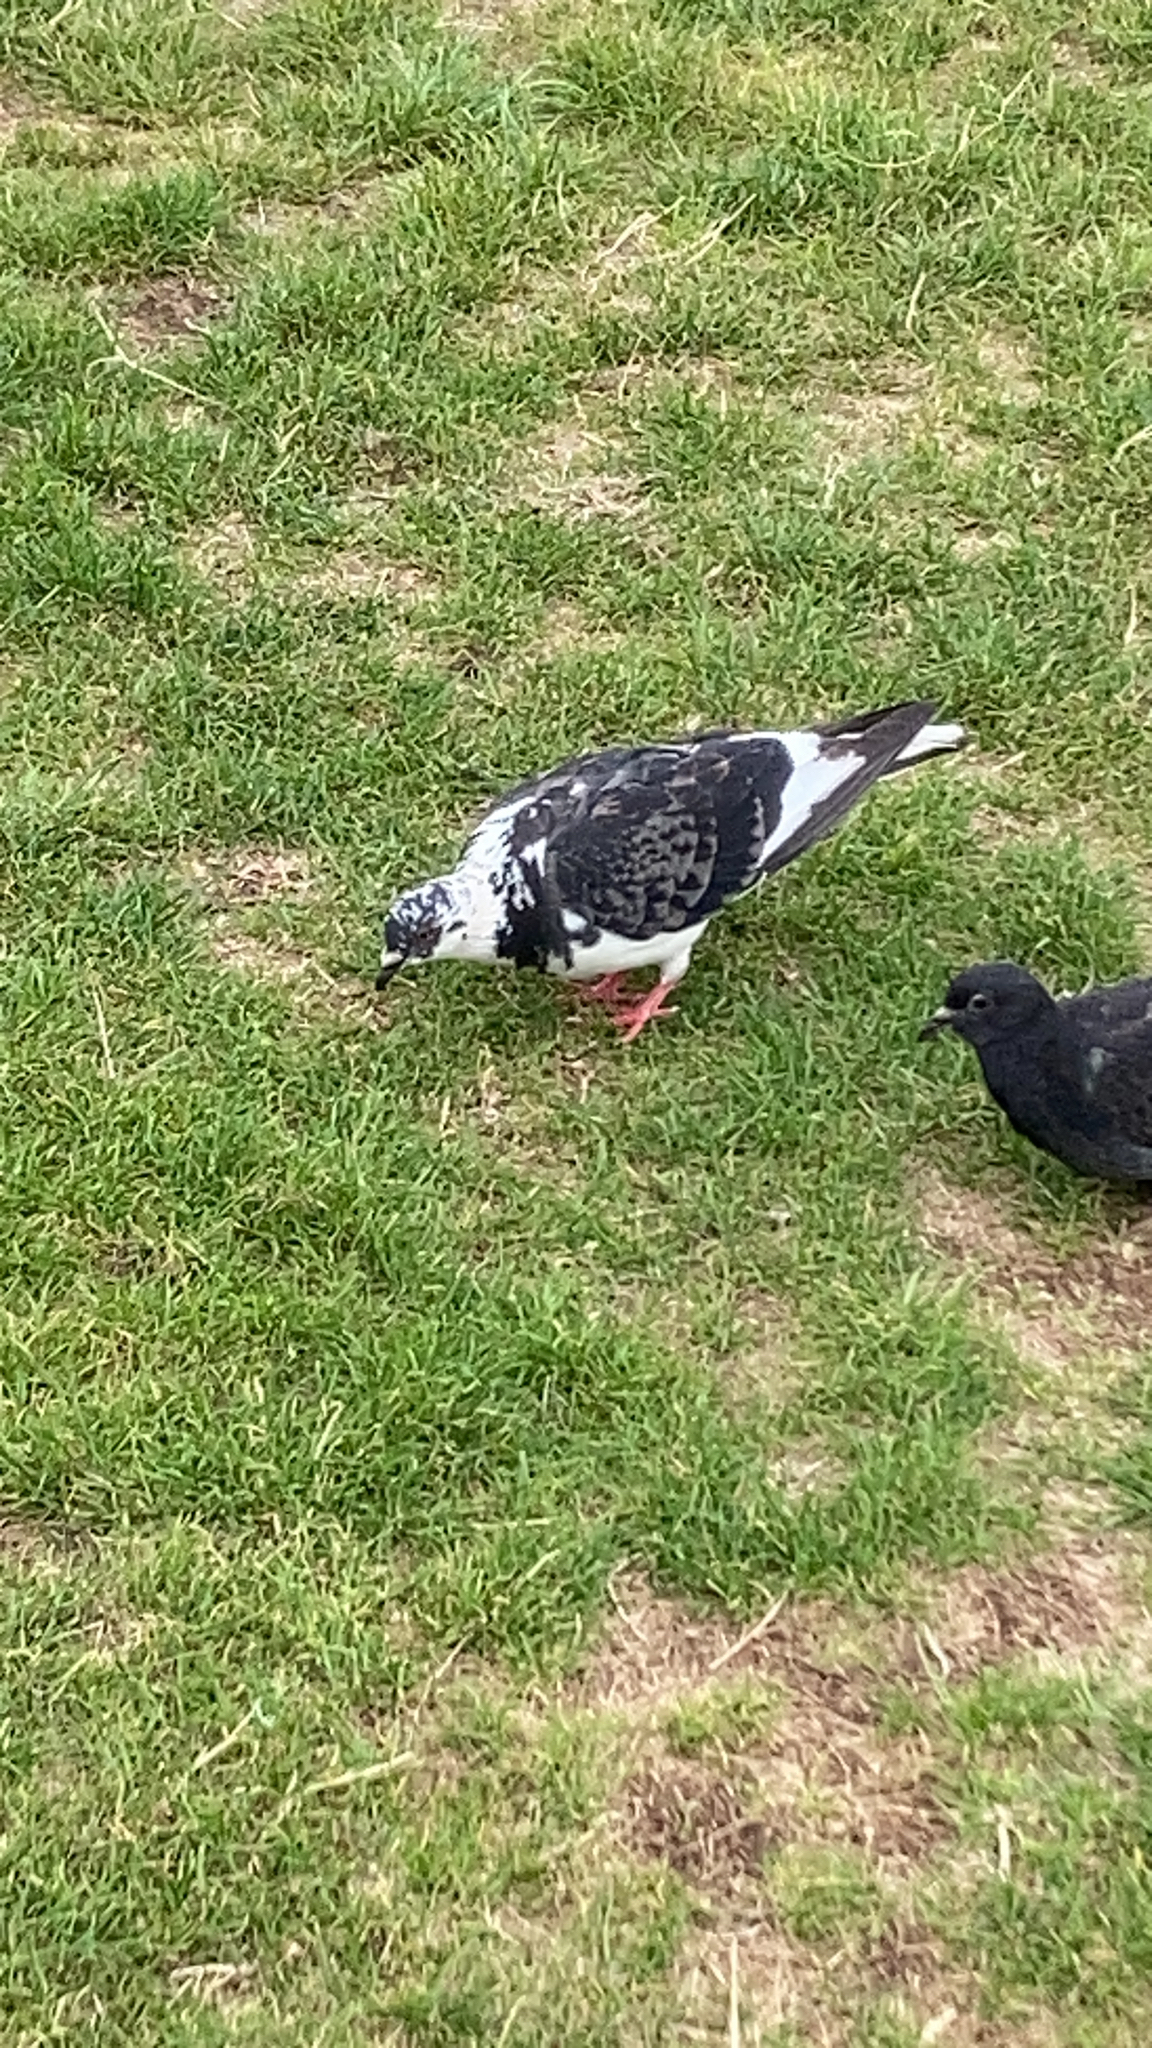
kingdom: Animalia
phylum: Chordata
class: Aves
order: Columbiformes
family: Columbidae
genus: Columba
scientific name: Columba livia
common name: Rock pigeon
